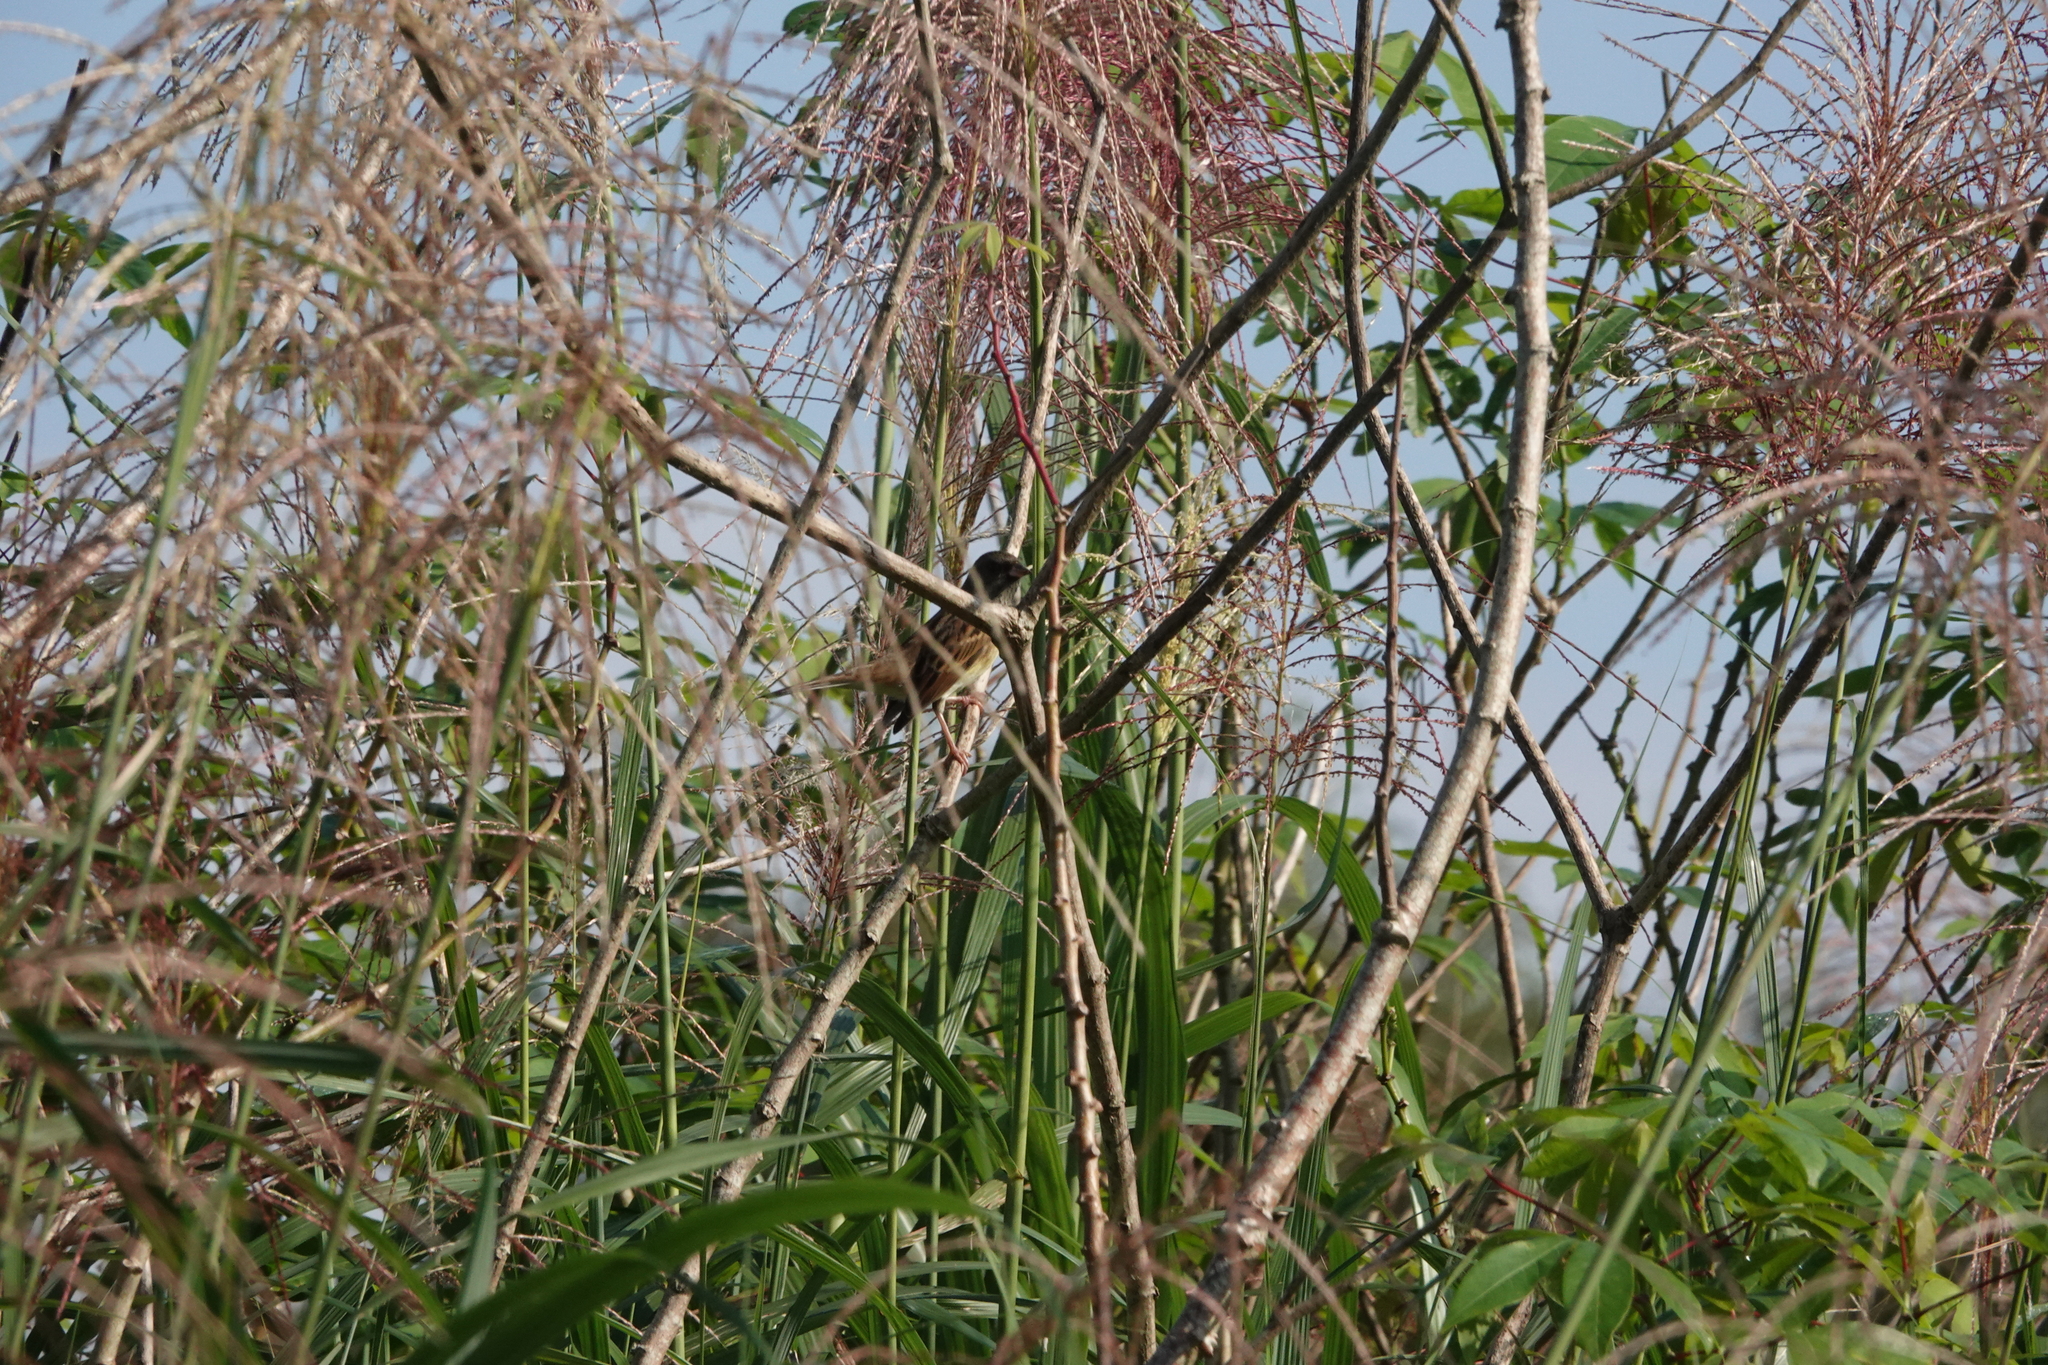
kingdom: Animalia
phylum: Chordata
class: Aves
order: Passeriformes
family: Emberizidae
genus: Emberiza
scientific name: Emberiza spodocephala
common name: Black-faced bunting
